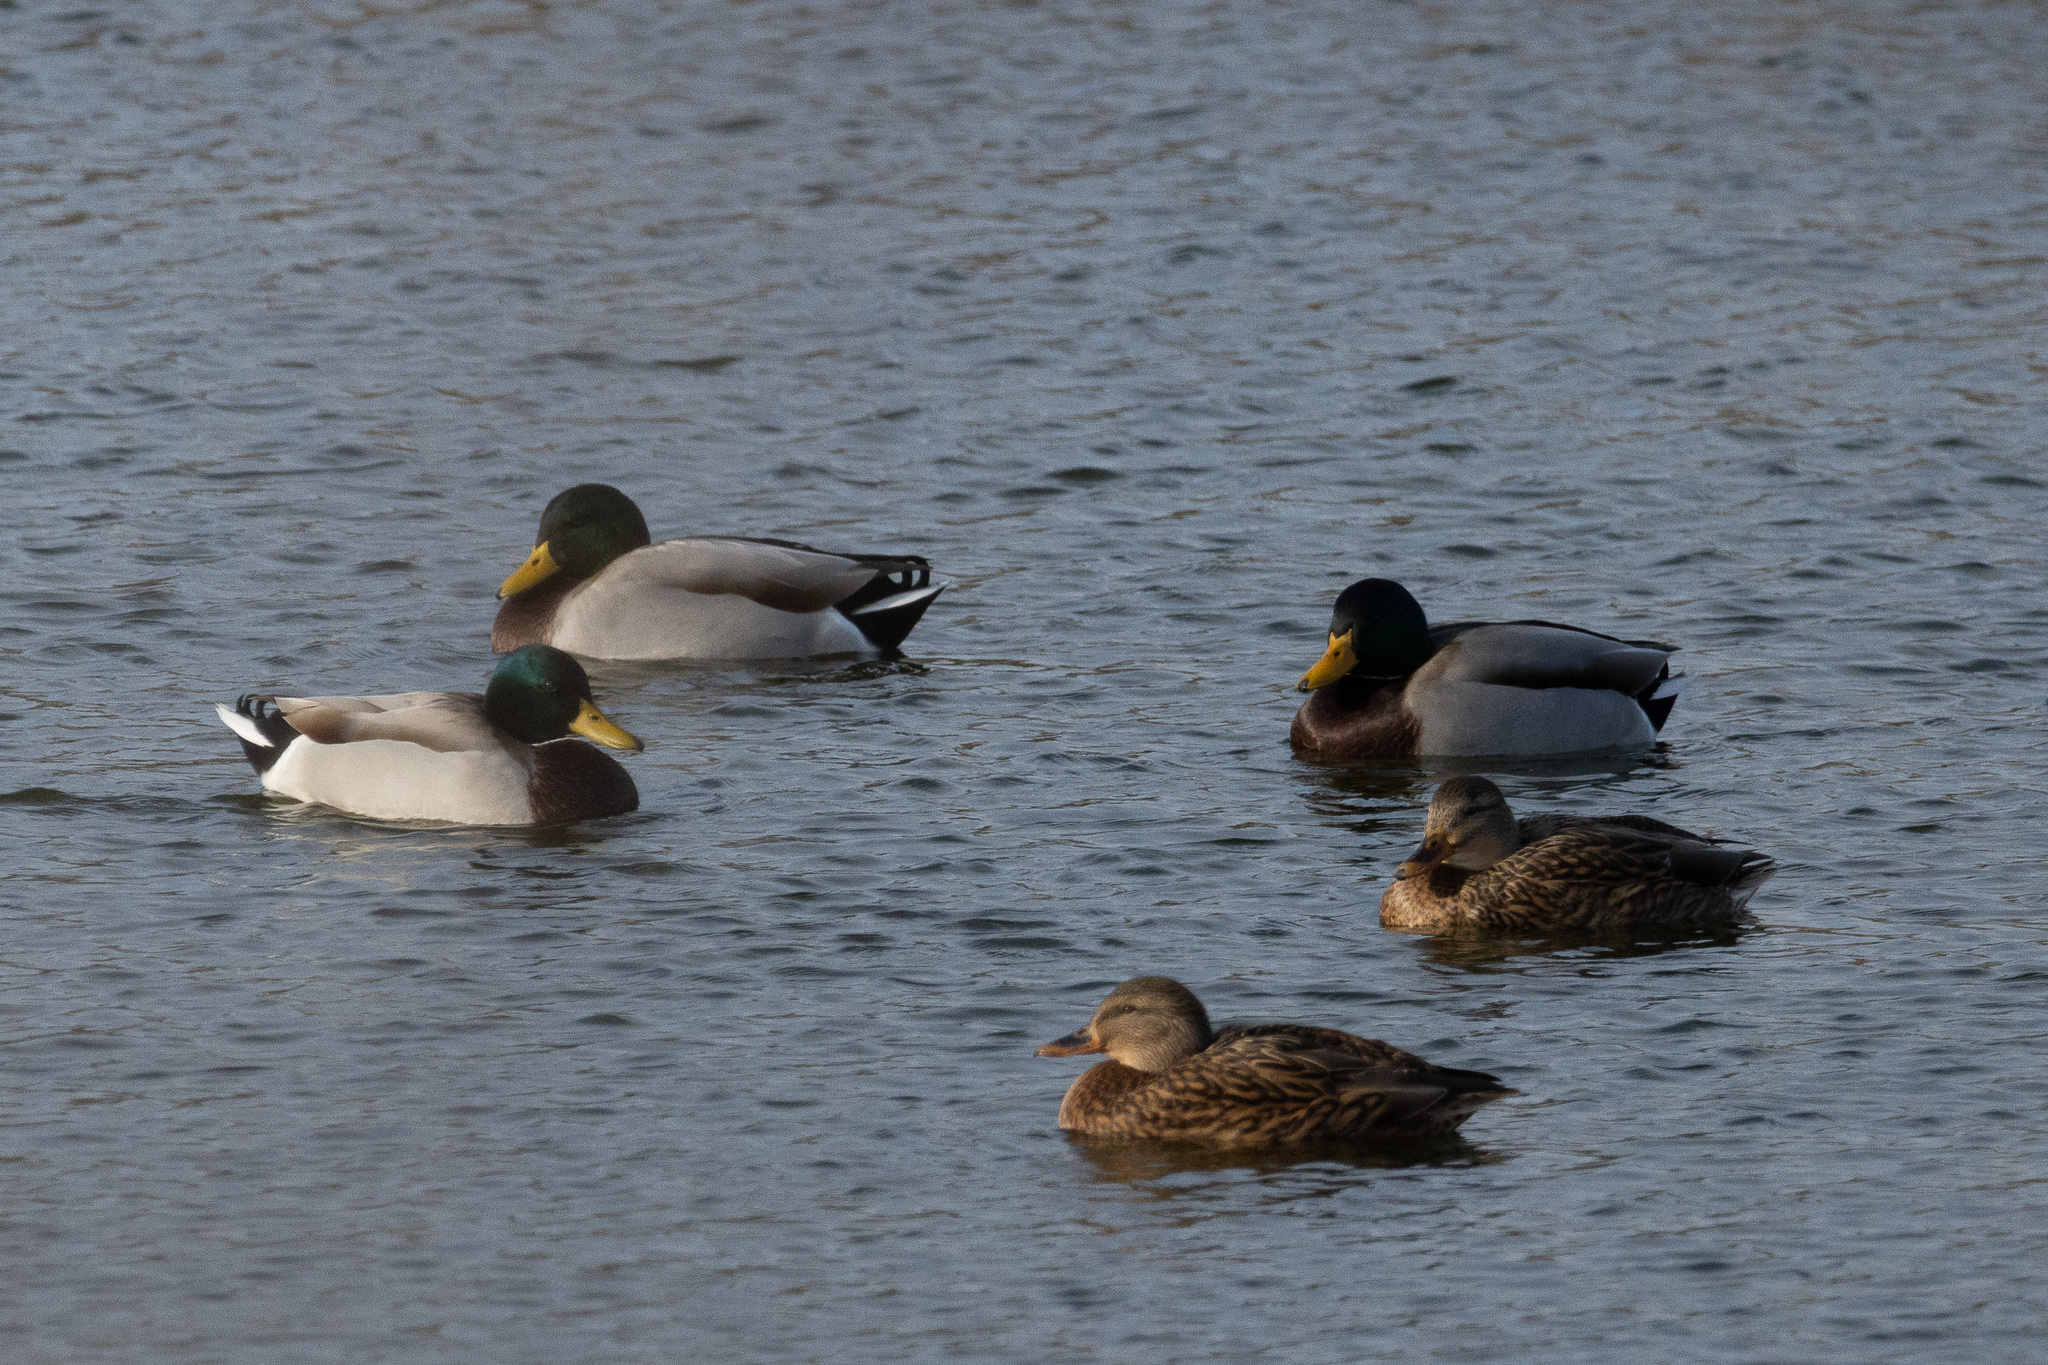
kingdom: Animalia
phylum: Chordata
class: Aves
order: Anseriformes
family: Anatidae
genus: Anas
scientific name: Anas platyrhynchos
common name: Mallard
